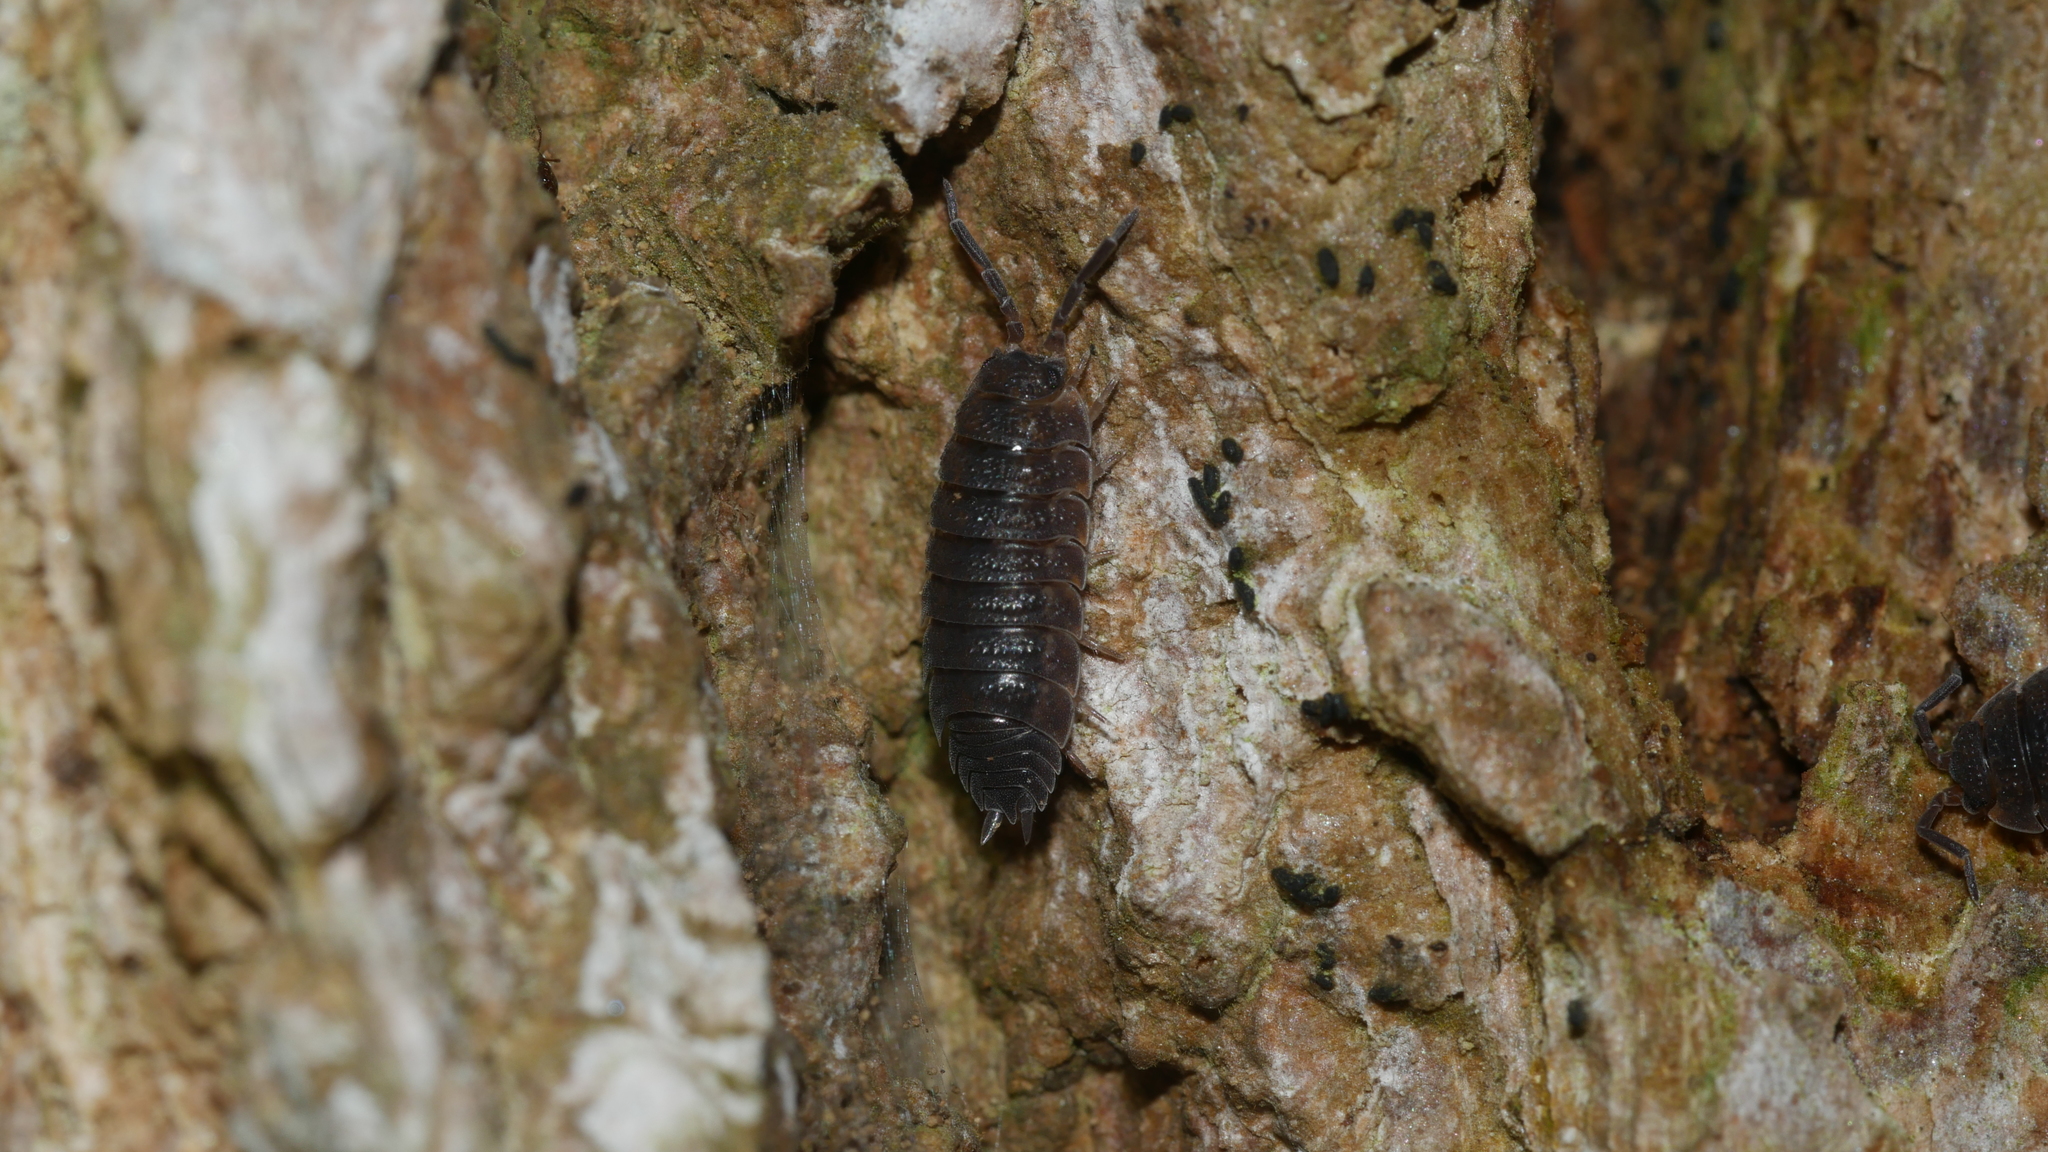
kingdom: Animalia
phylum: Arthropoda
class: Malacostraca
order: Isopoda
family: Porcellionidae
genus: Porcellio
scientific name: Porcellio scaber
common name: Common rough woodlouse
